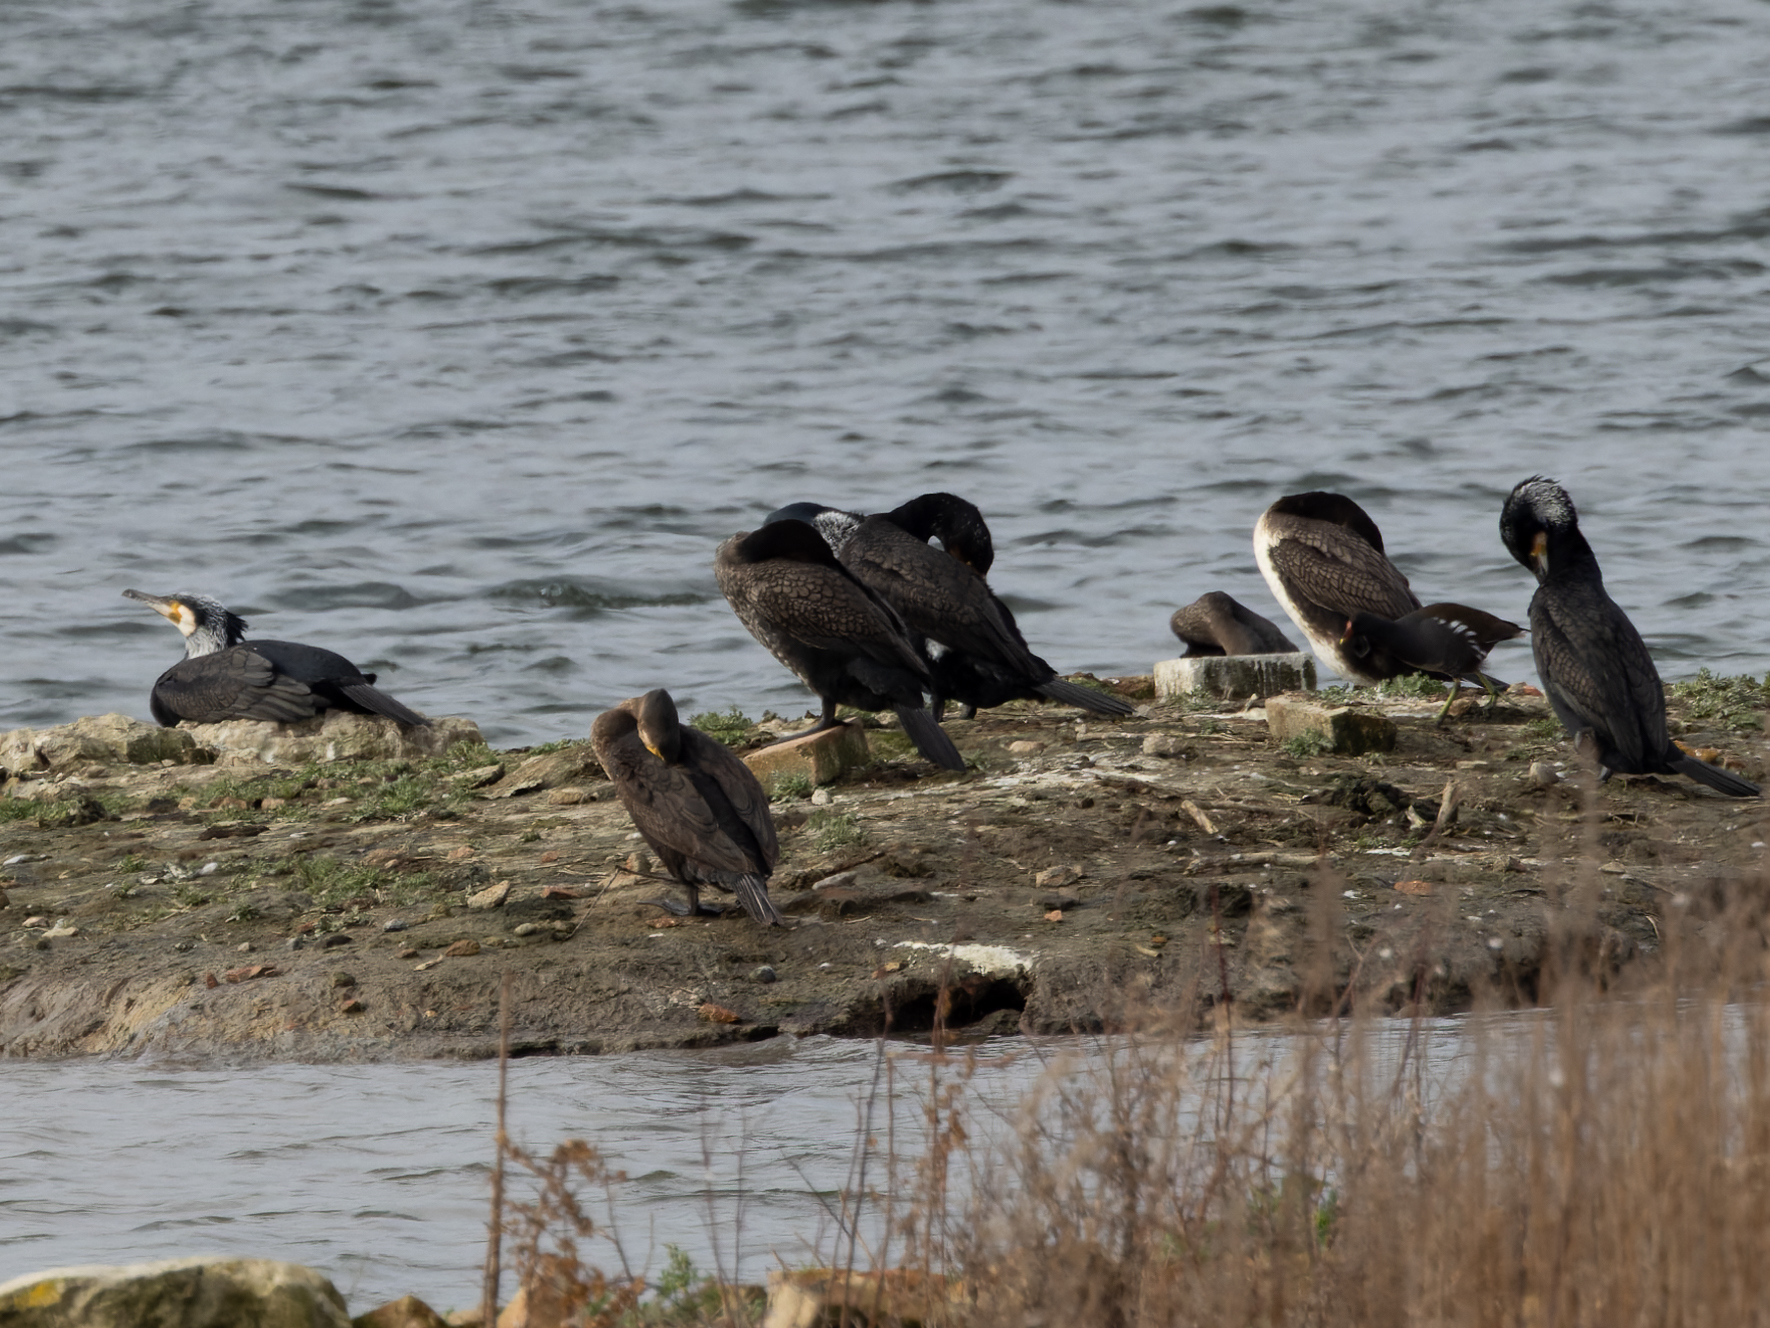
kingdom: Animalia
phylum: Chordata
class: Aves
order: Suliformes
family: Phalacrocoracidae
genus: Phalacrocorax
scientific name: Phalacrocorax carbo
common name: Great cormorant
